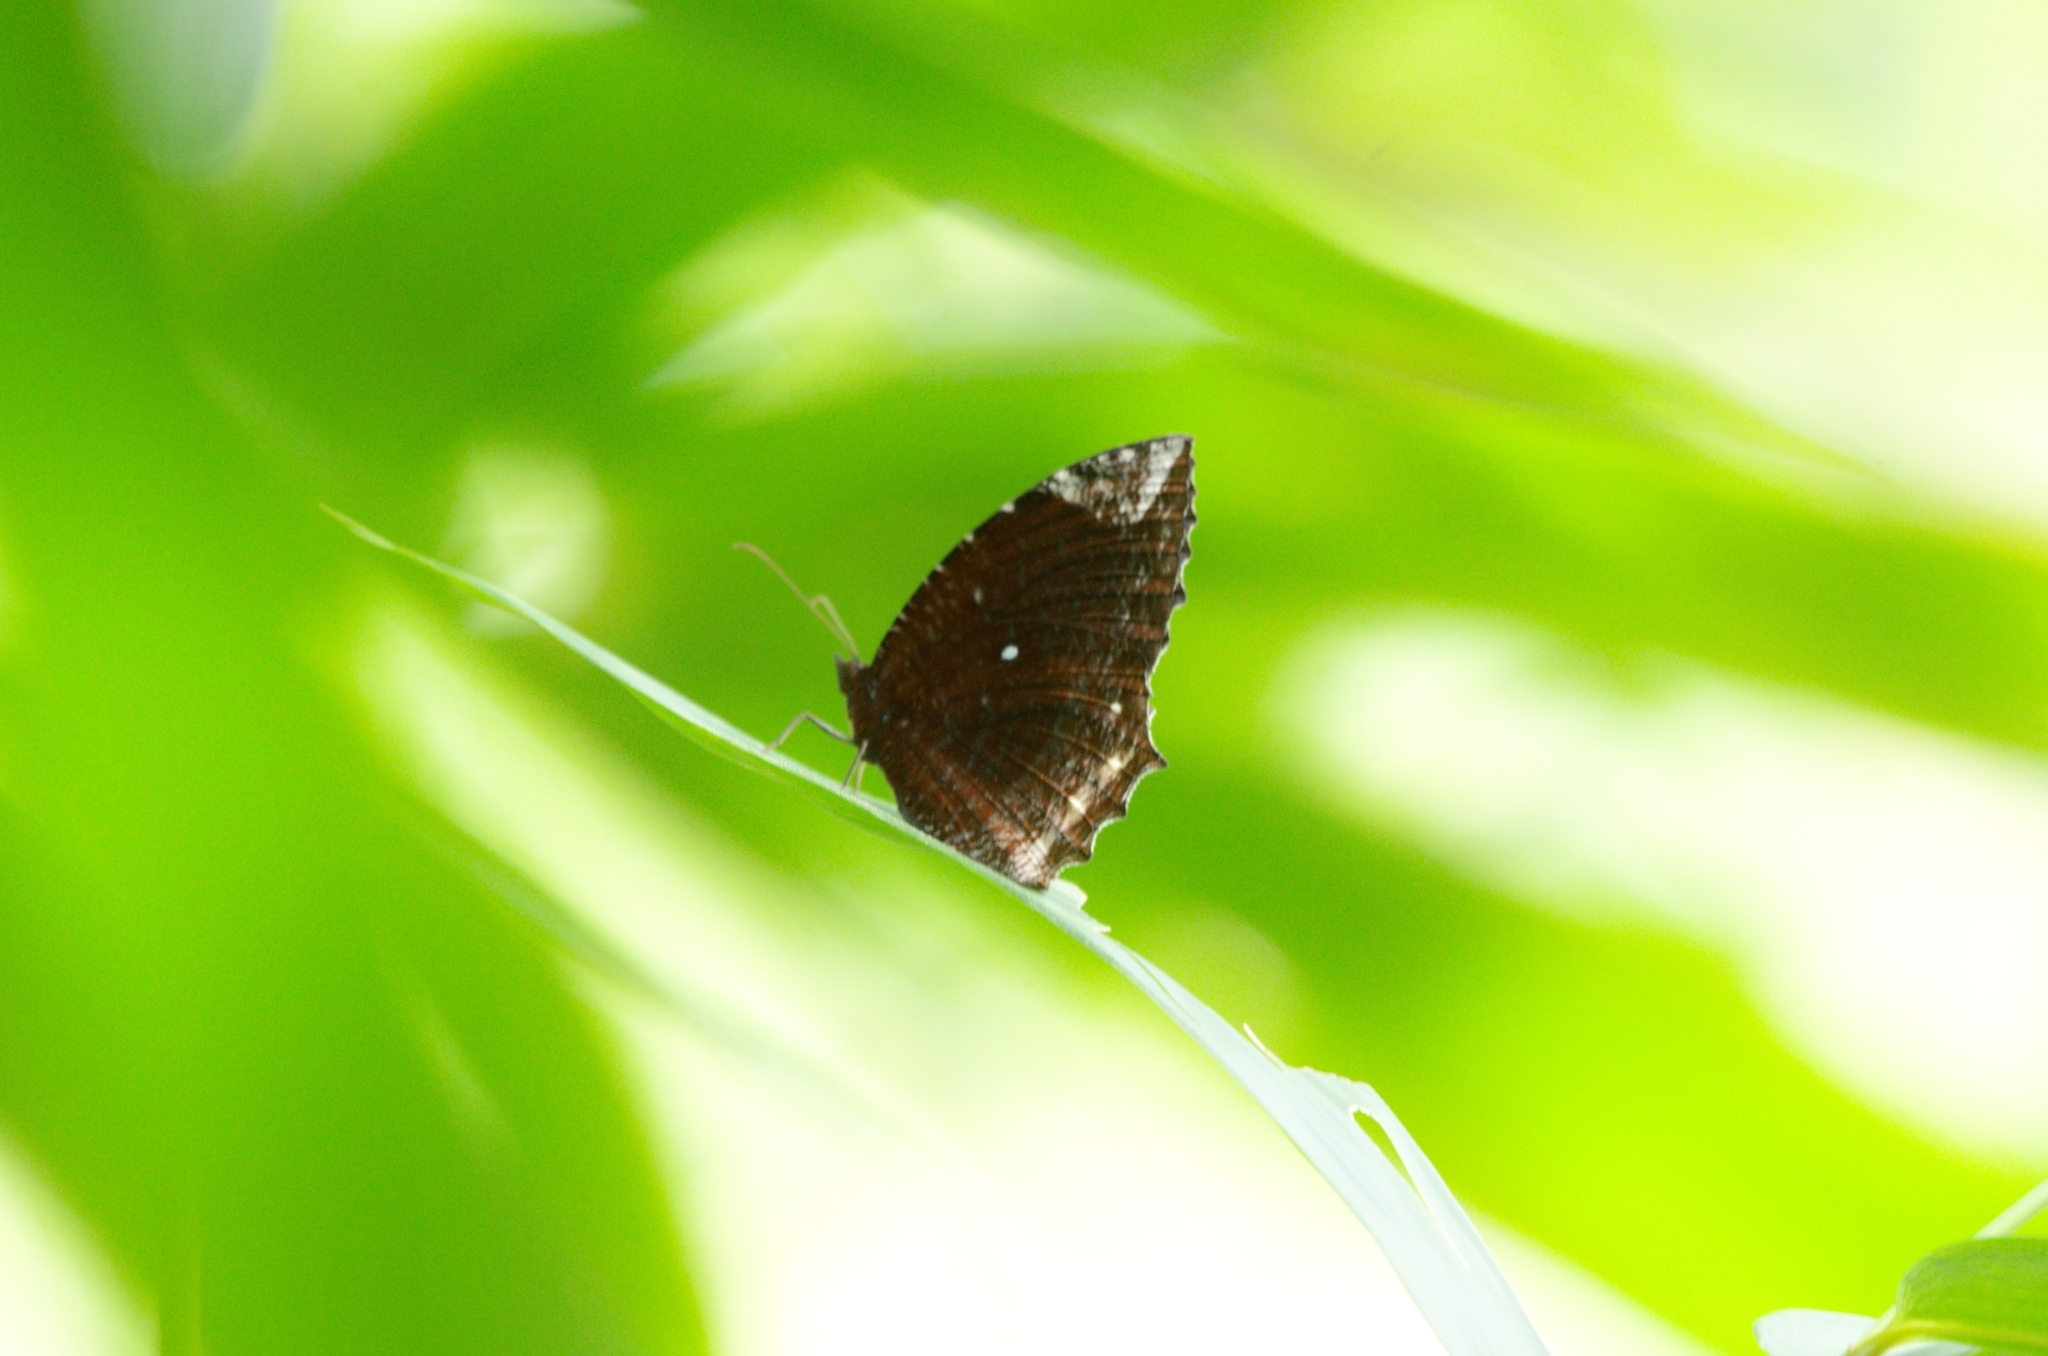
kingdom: Animalia
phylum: Arthropoda
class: Insecta
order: Lepidoptera
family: Nymphalidae
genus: Elymnias
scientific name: Elymnias hypermnestra
